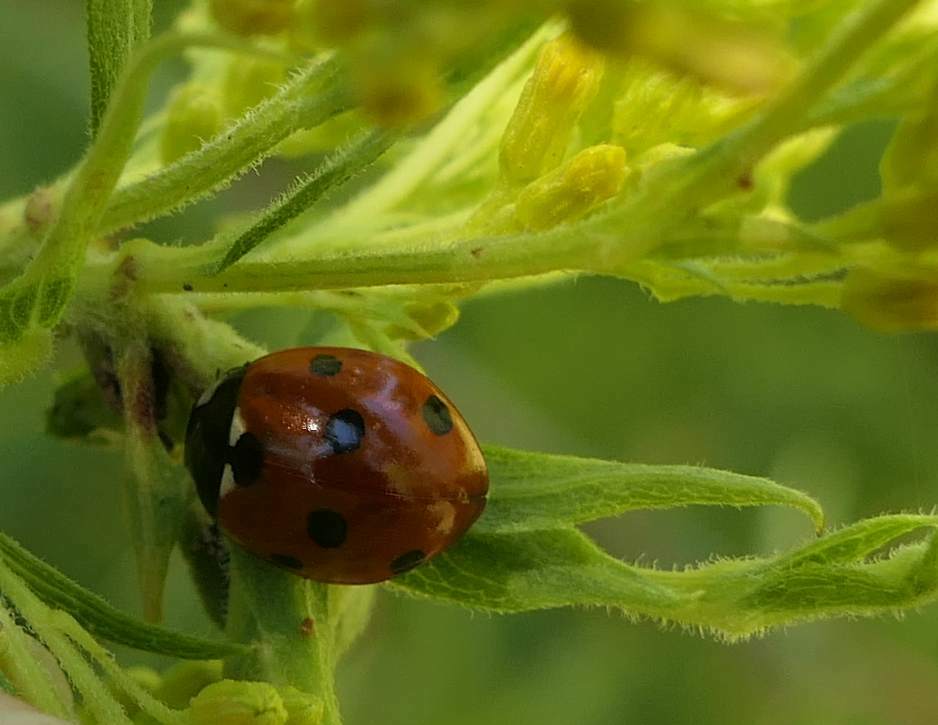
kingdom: Animalia
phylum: Arthropoda
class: Insecta
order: Coleoptera
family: Coccinellidae
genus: Coccinella
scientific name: Coccinella septempunctata
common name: Sevenspotted lady beetle
